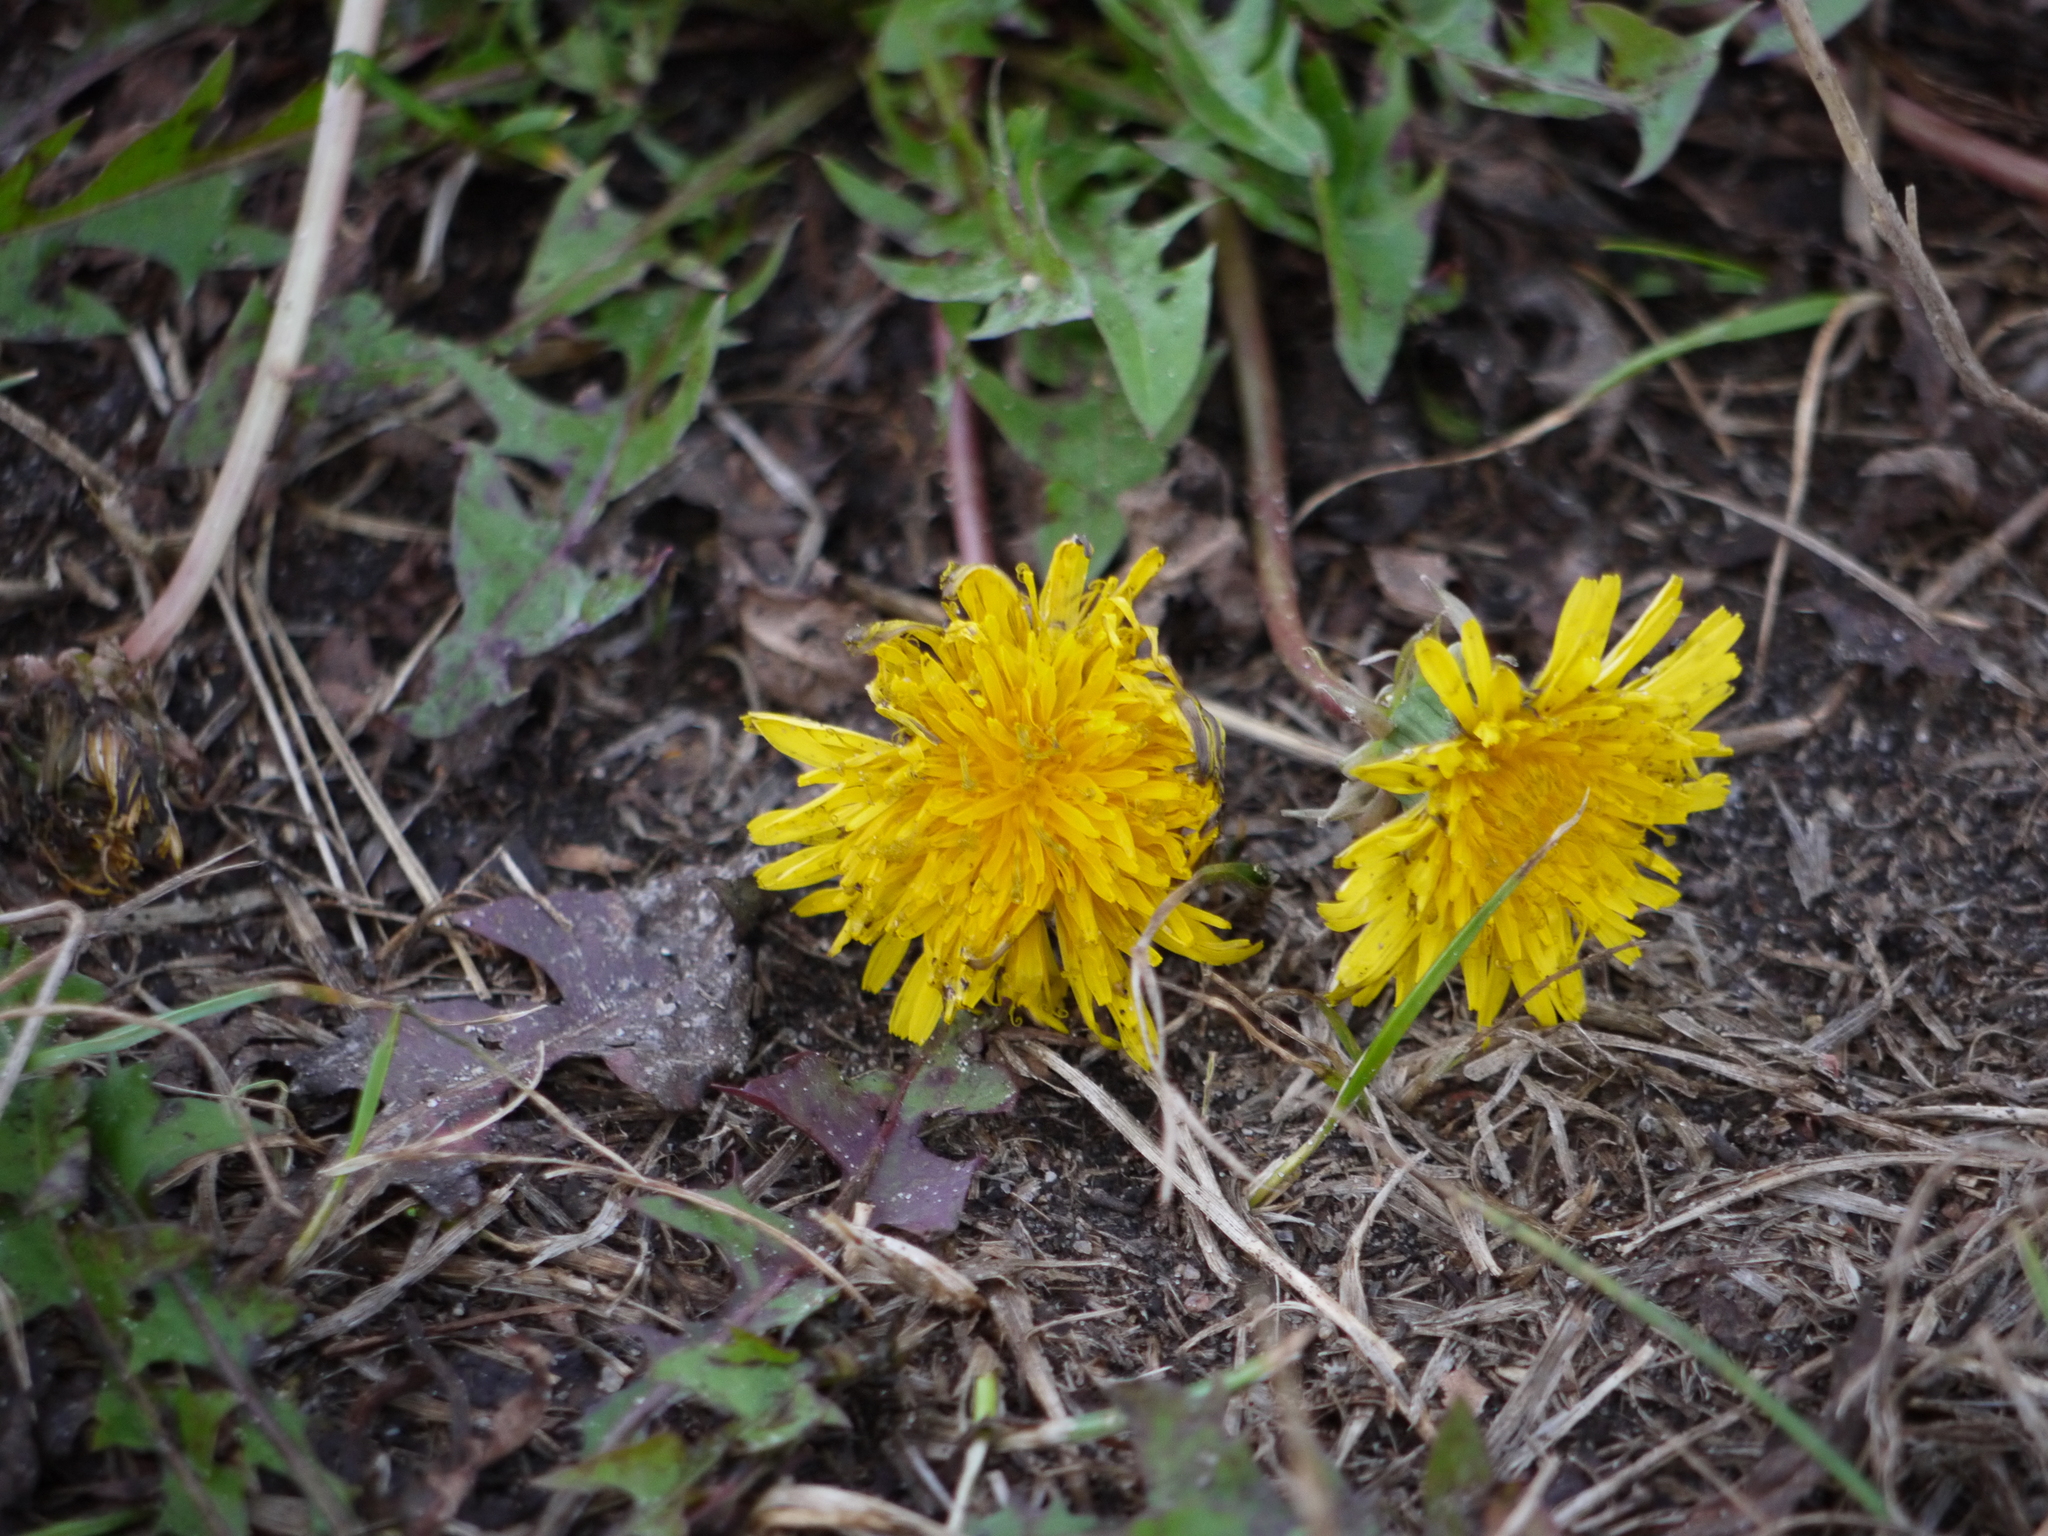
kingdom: Plantae
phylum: Tracheophyta
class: Magnoliopsida
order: Asterales
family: Asteraceae
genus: Taraxacum
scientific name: Taraxacum officinale
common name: Common dandelion
